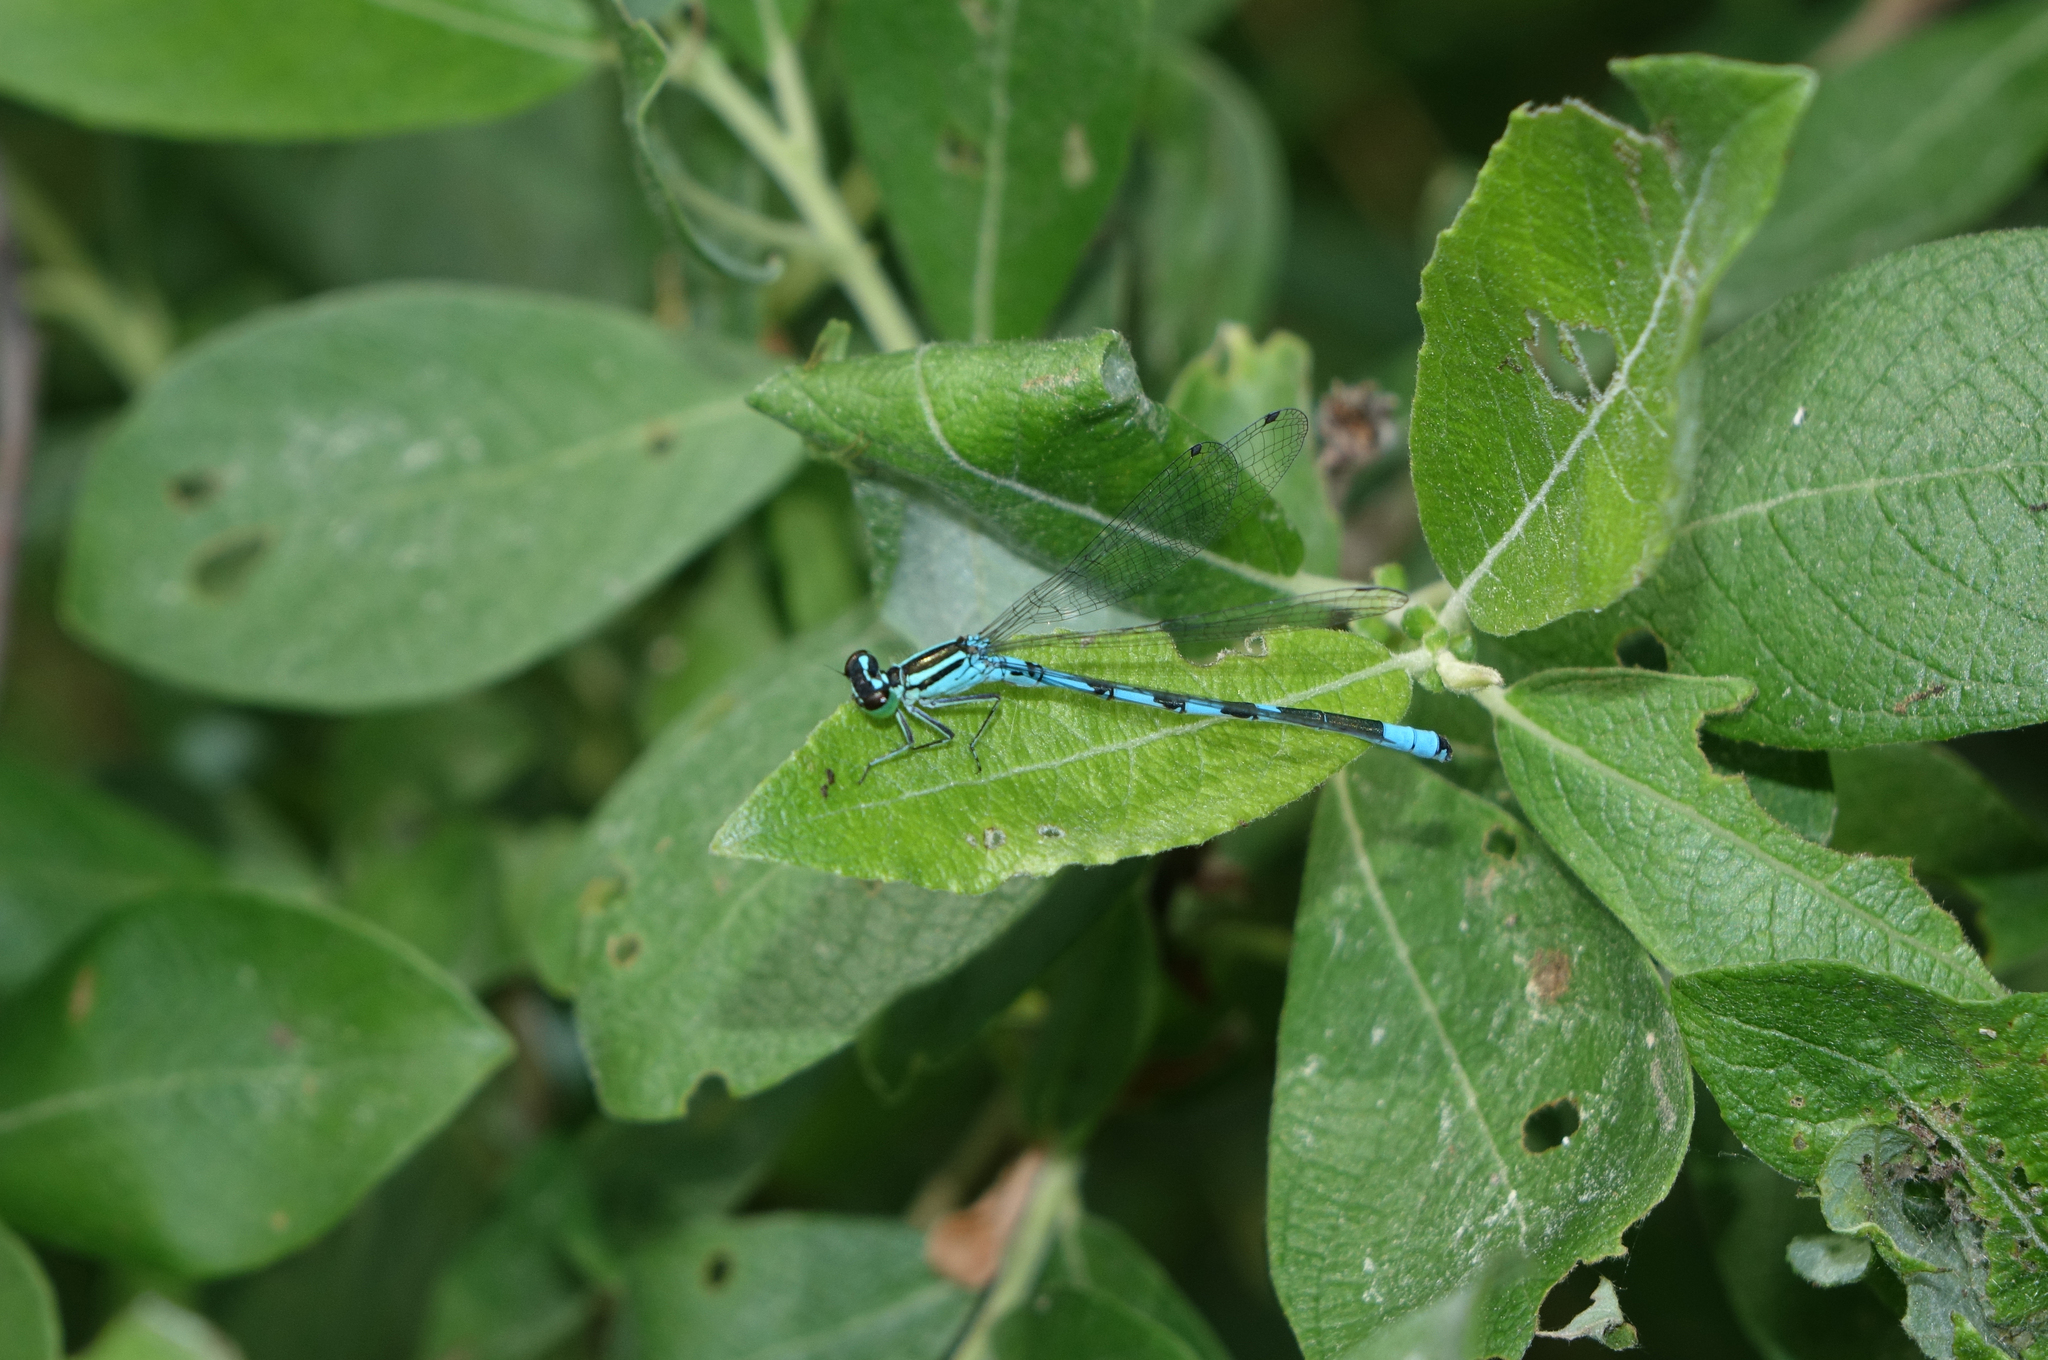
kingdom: Animalia
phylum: Arthropoda
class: Insecta
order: Odonata
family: Coenagrionidae
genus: Coenagrion
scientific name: Coenagrion hastulatum
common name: Spearhead bluet
